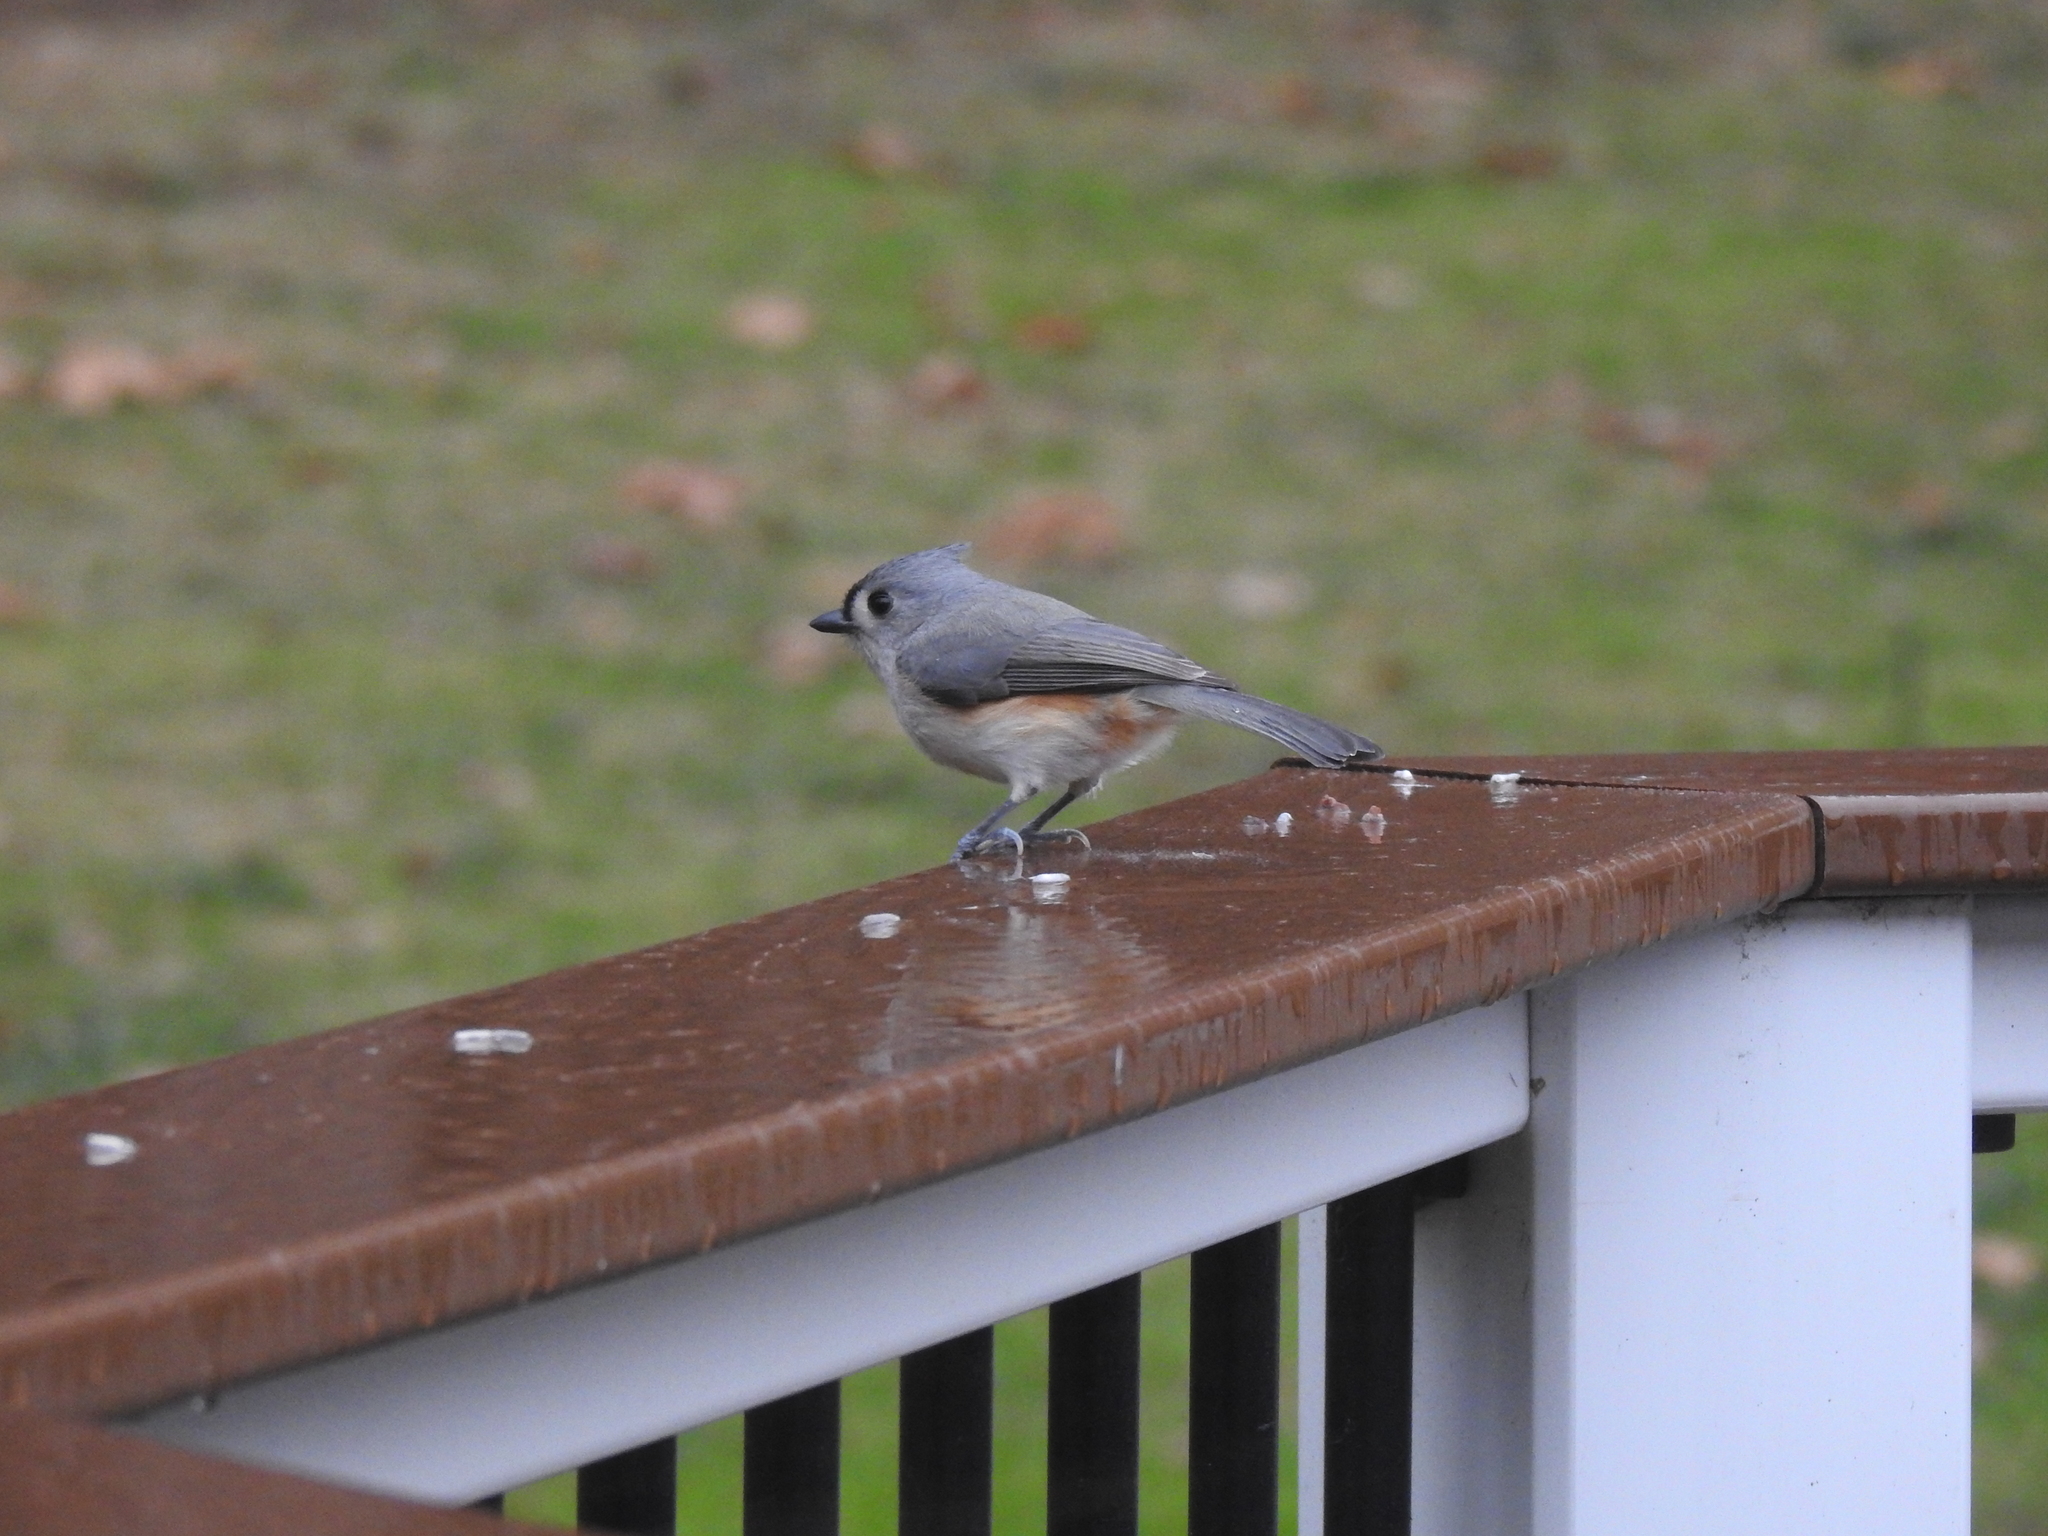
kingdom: Animalia
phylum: Chordata
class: Aves
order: Passeriformes
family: Paridae
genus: Baeolophus
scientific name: Baeolophus bicolor
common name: Tufted titmouse
